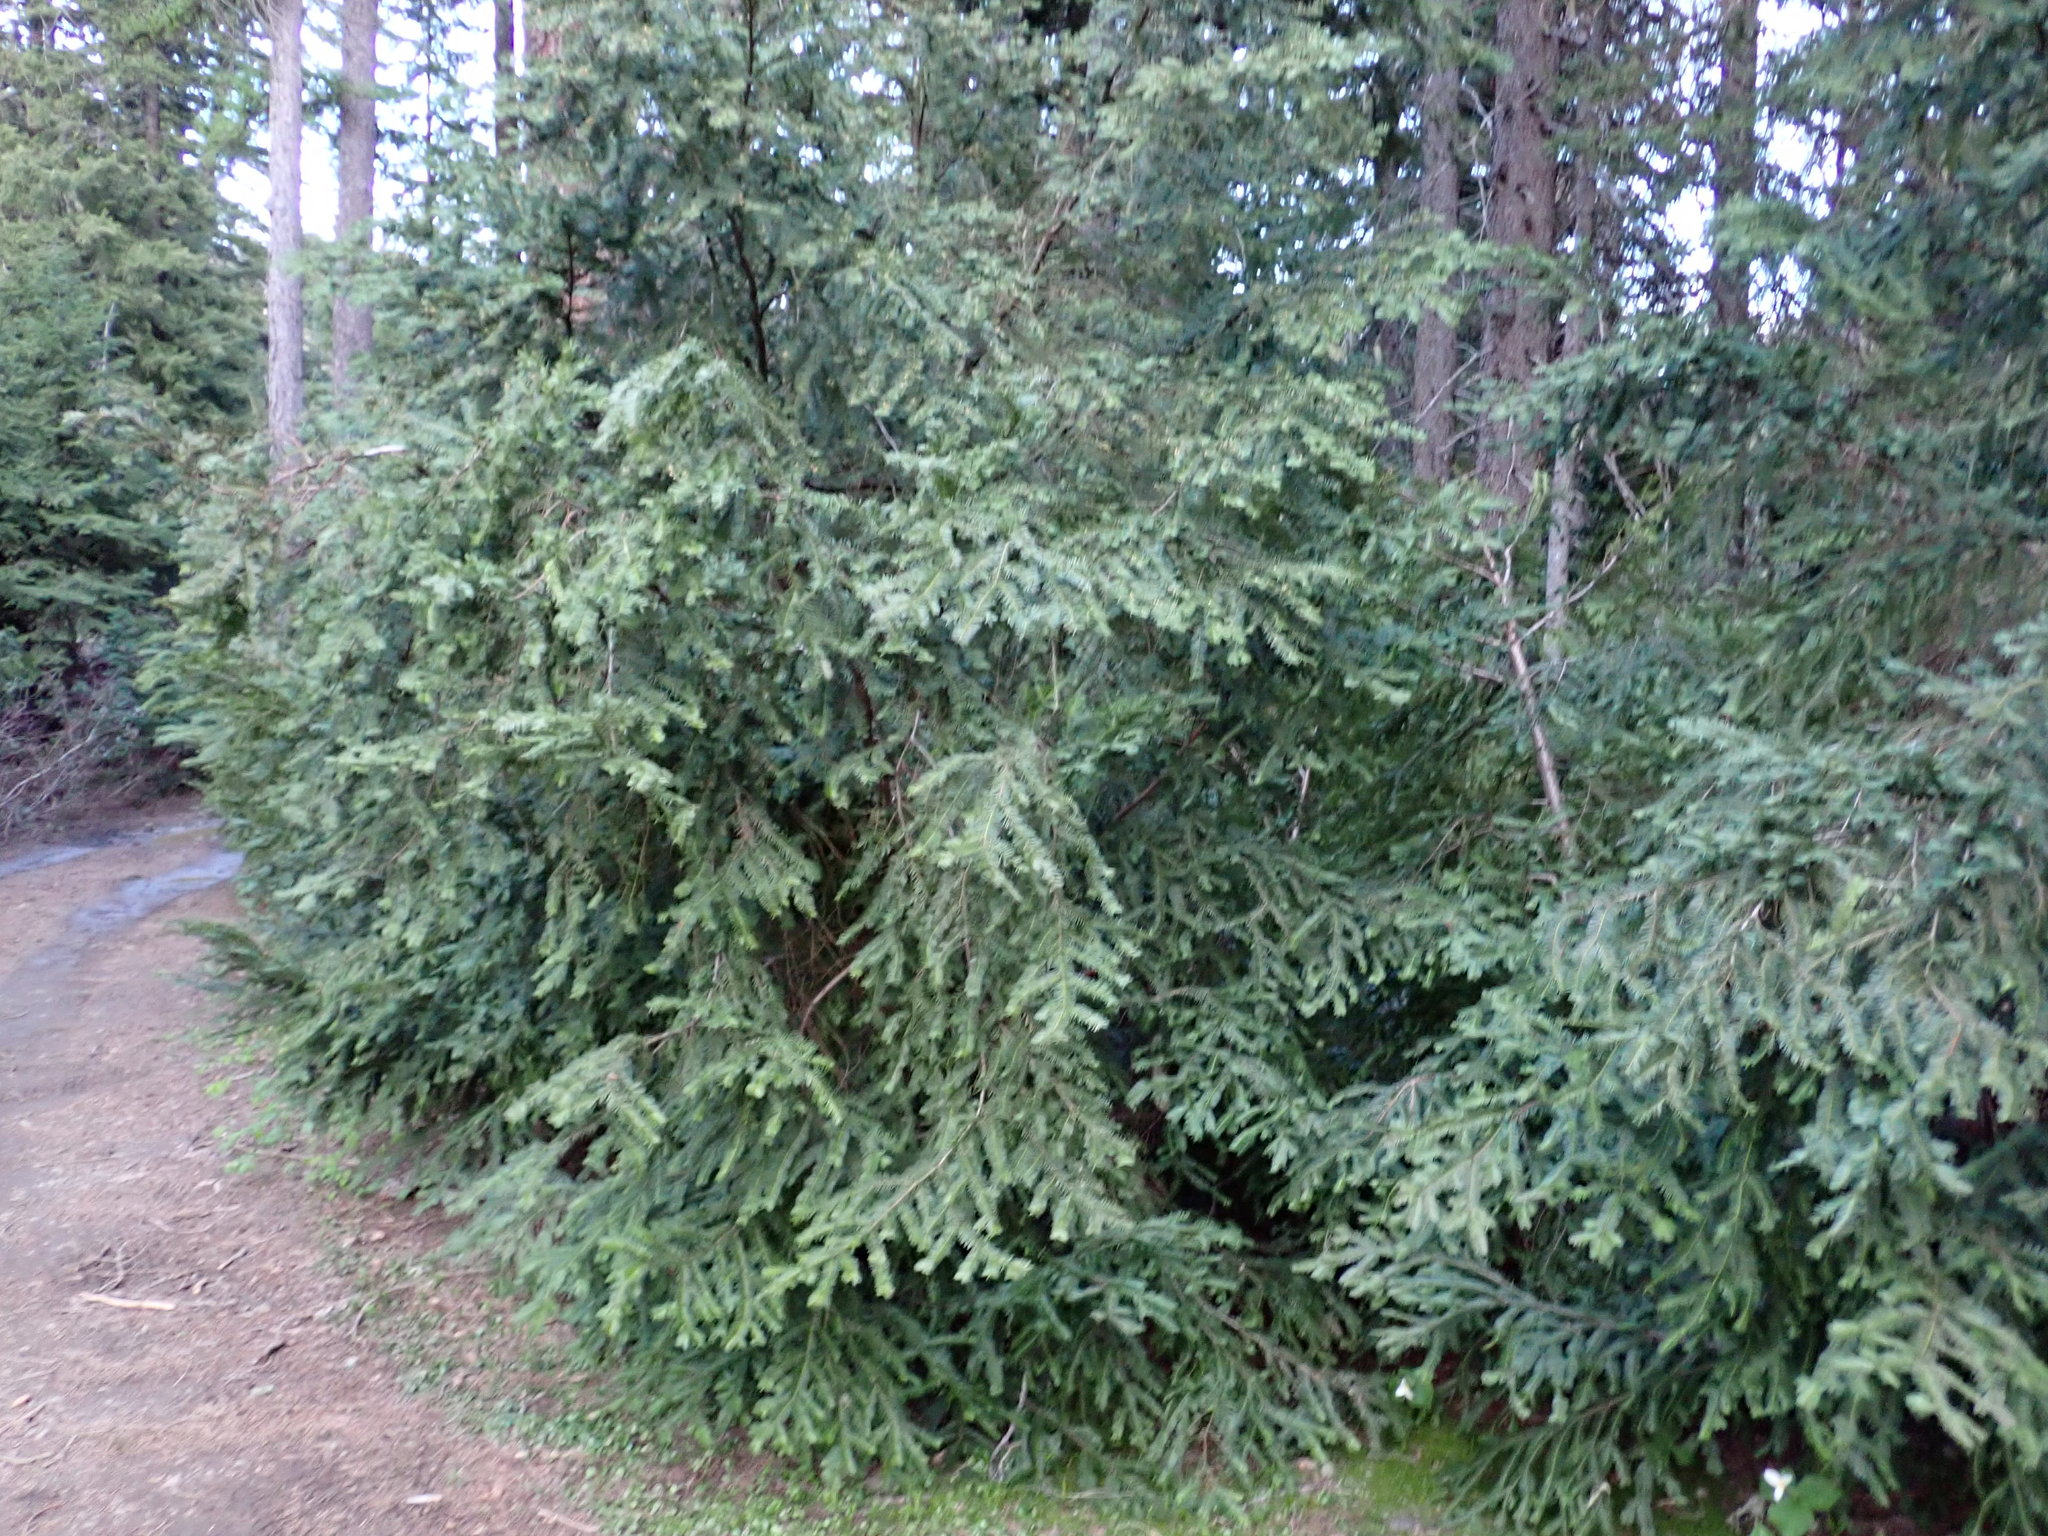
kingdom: Plantae
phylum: Tracheophyta
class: Pinopsida
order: Pinales
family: Taxaceae
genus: Taxus
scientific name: Taxus brevifolia
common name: Pacific yew
